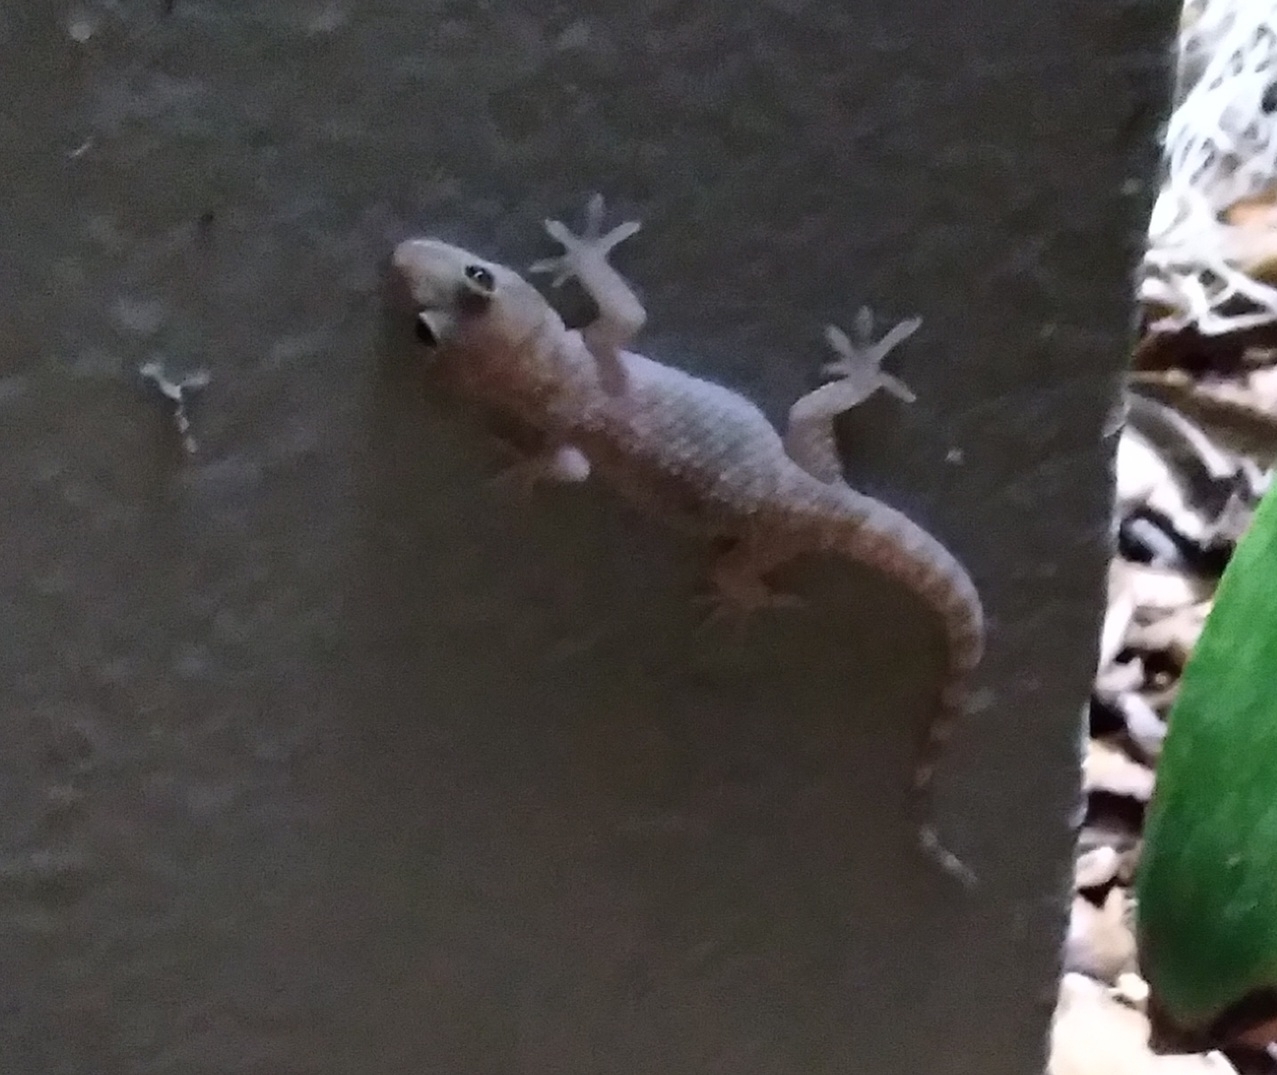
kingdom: Animalia
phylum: Chordata
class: Squamata
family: Gekkonidae
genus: Hemidactylus
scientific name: Hemidactylus turcicus
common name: Turkish gecko
